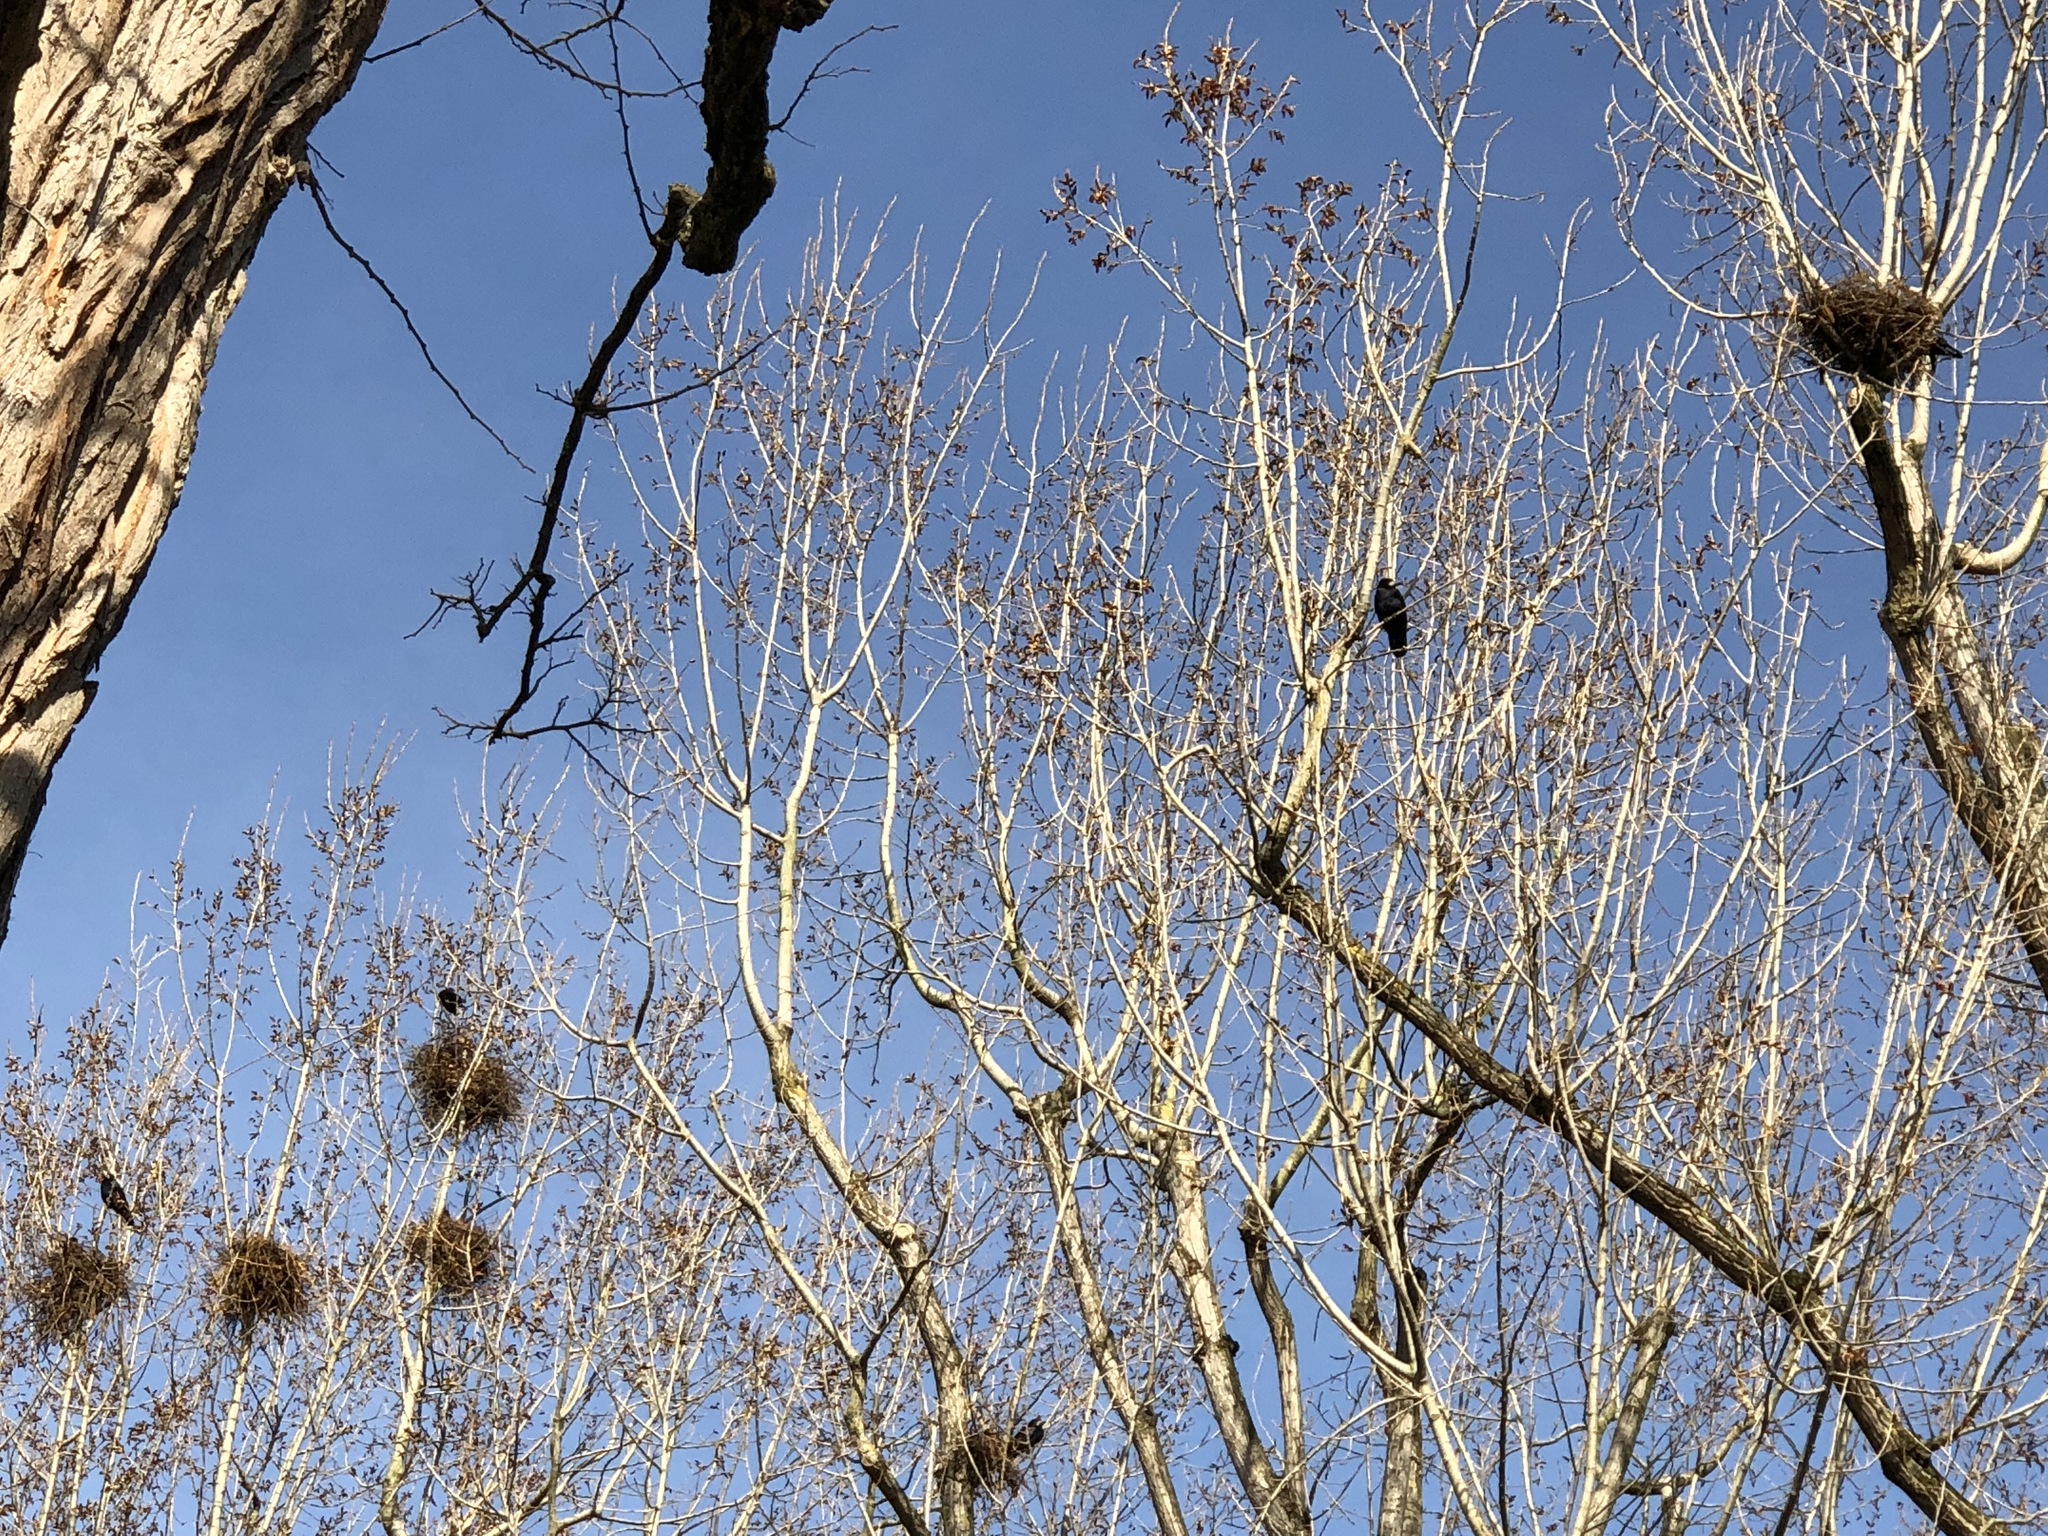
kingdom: Animalia
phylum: Chordata
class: Aves
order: Passeriformes
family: Corvidae
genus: Corvus
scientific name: Corvus frugilegus
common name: Rook
